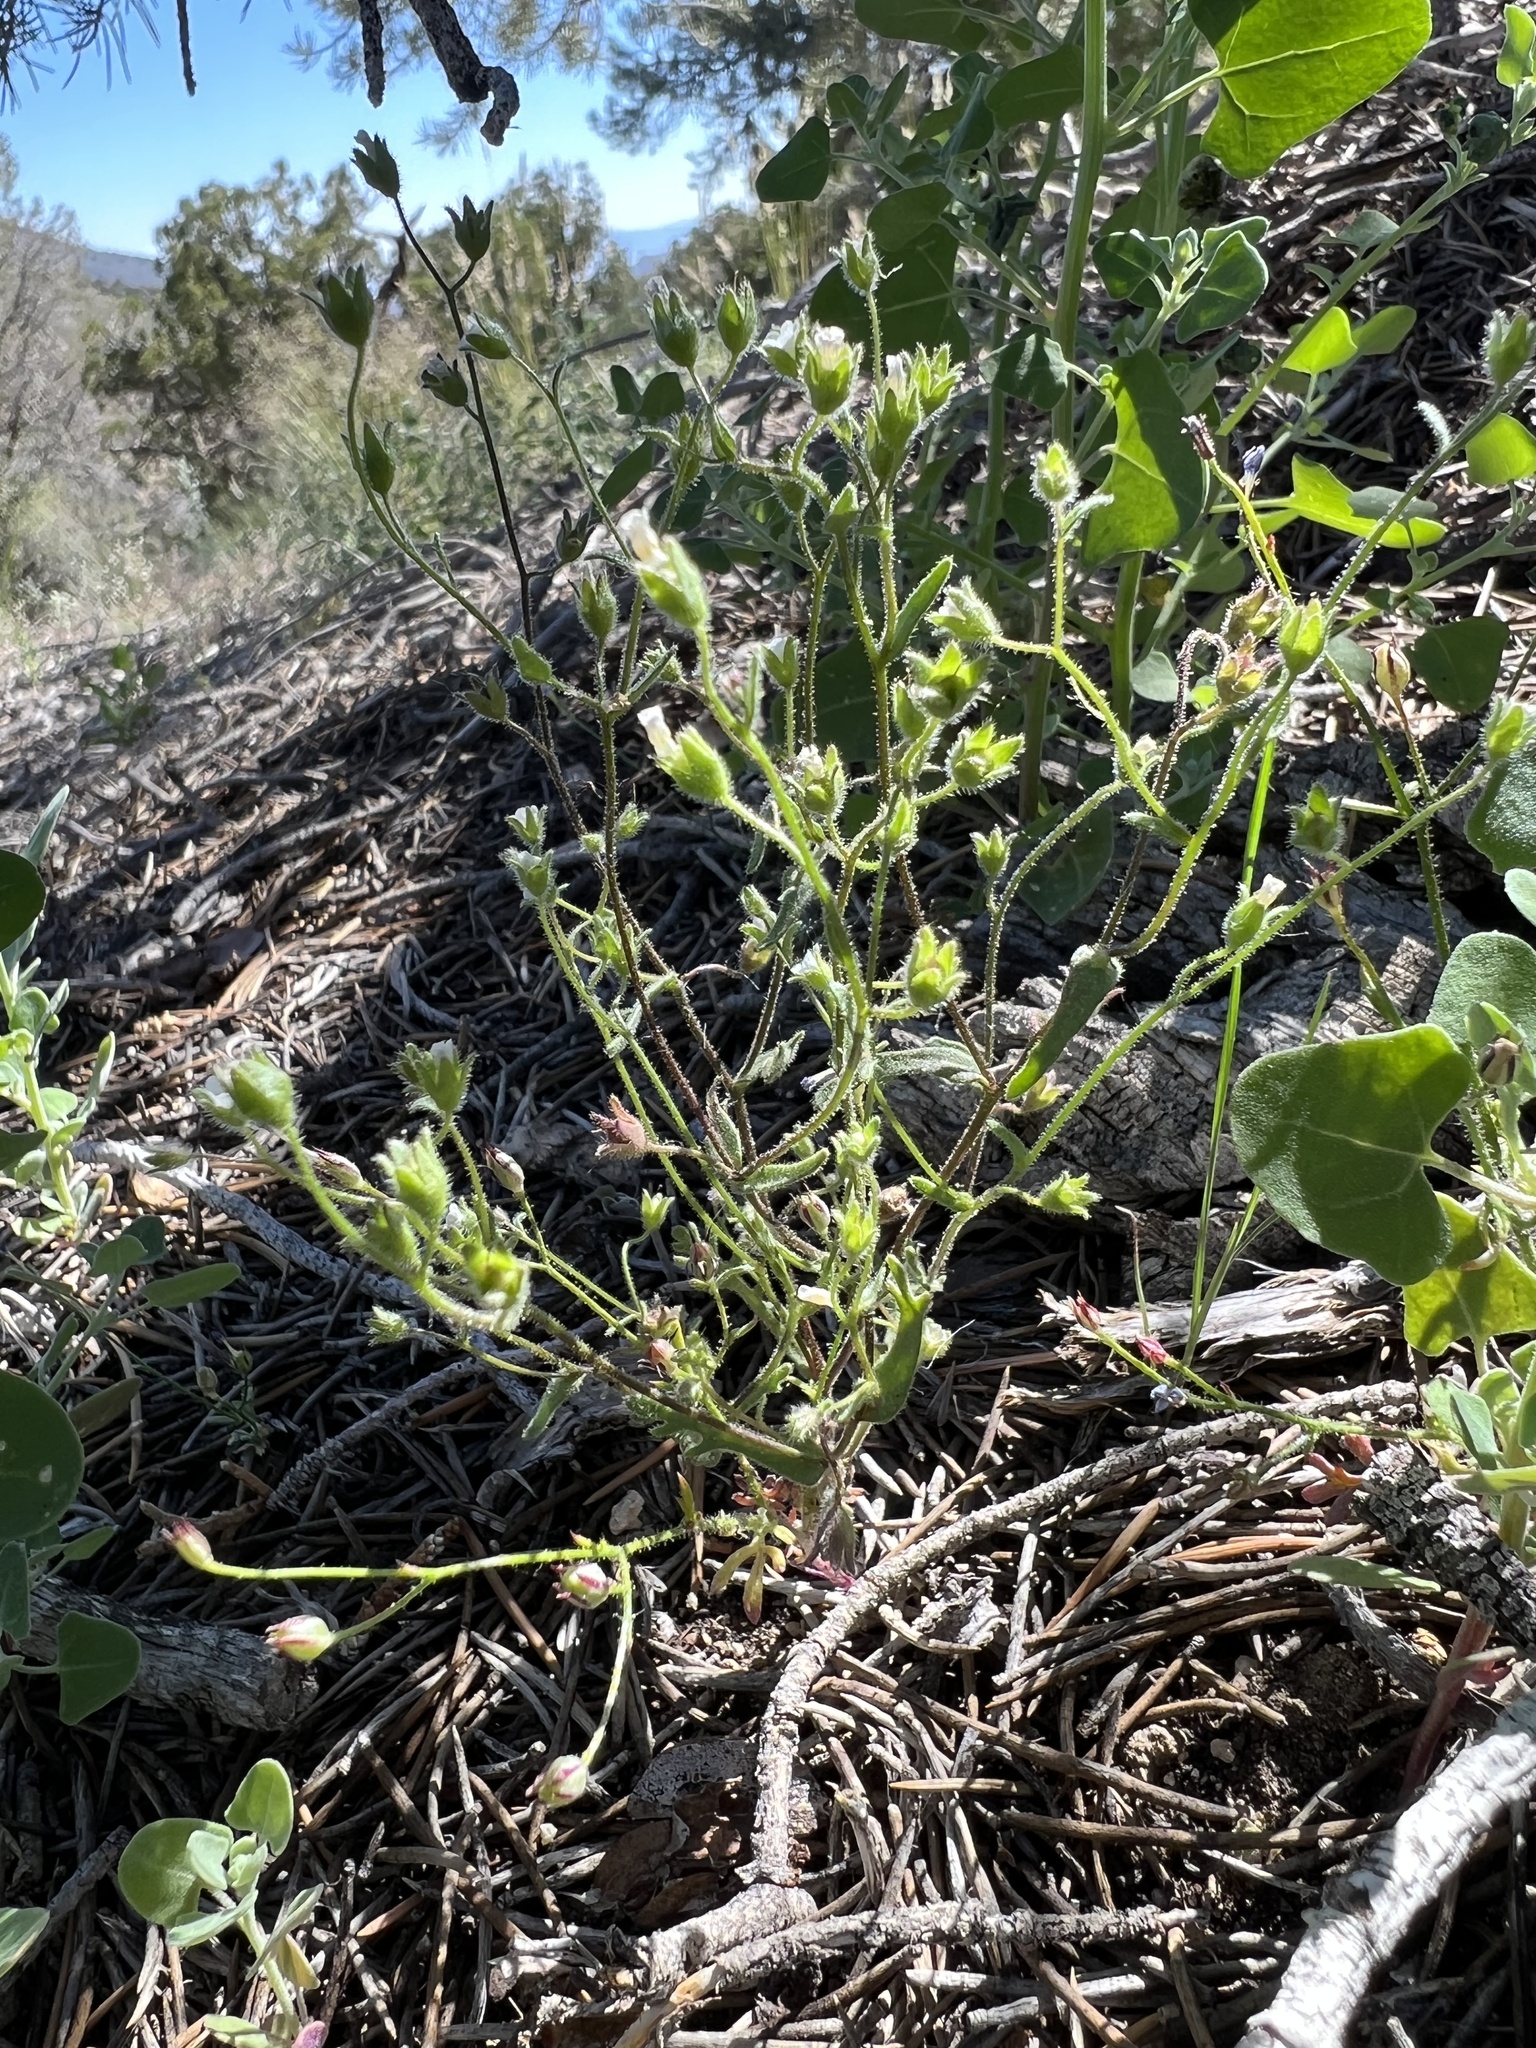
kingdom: Plantae
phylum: Tracheophyta
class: Magnoliopsida
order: Boraginales
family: Hydrophyllaceae
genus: Eucrypta
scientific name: Eucrypta micrantha
